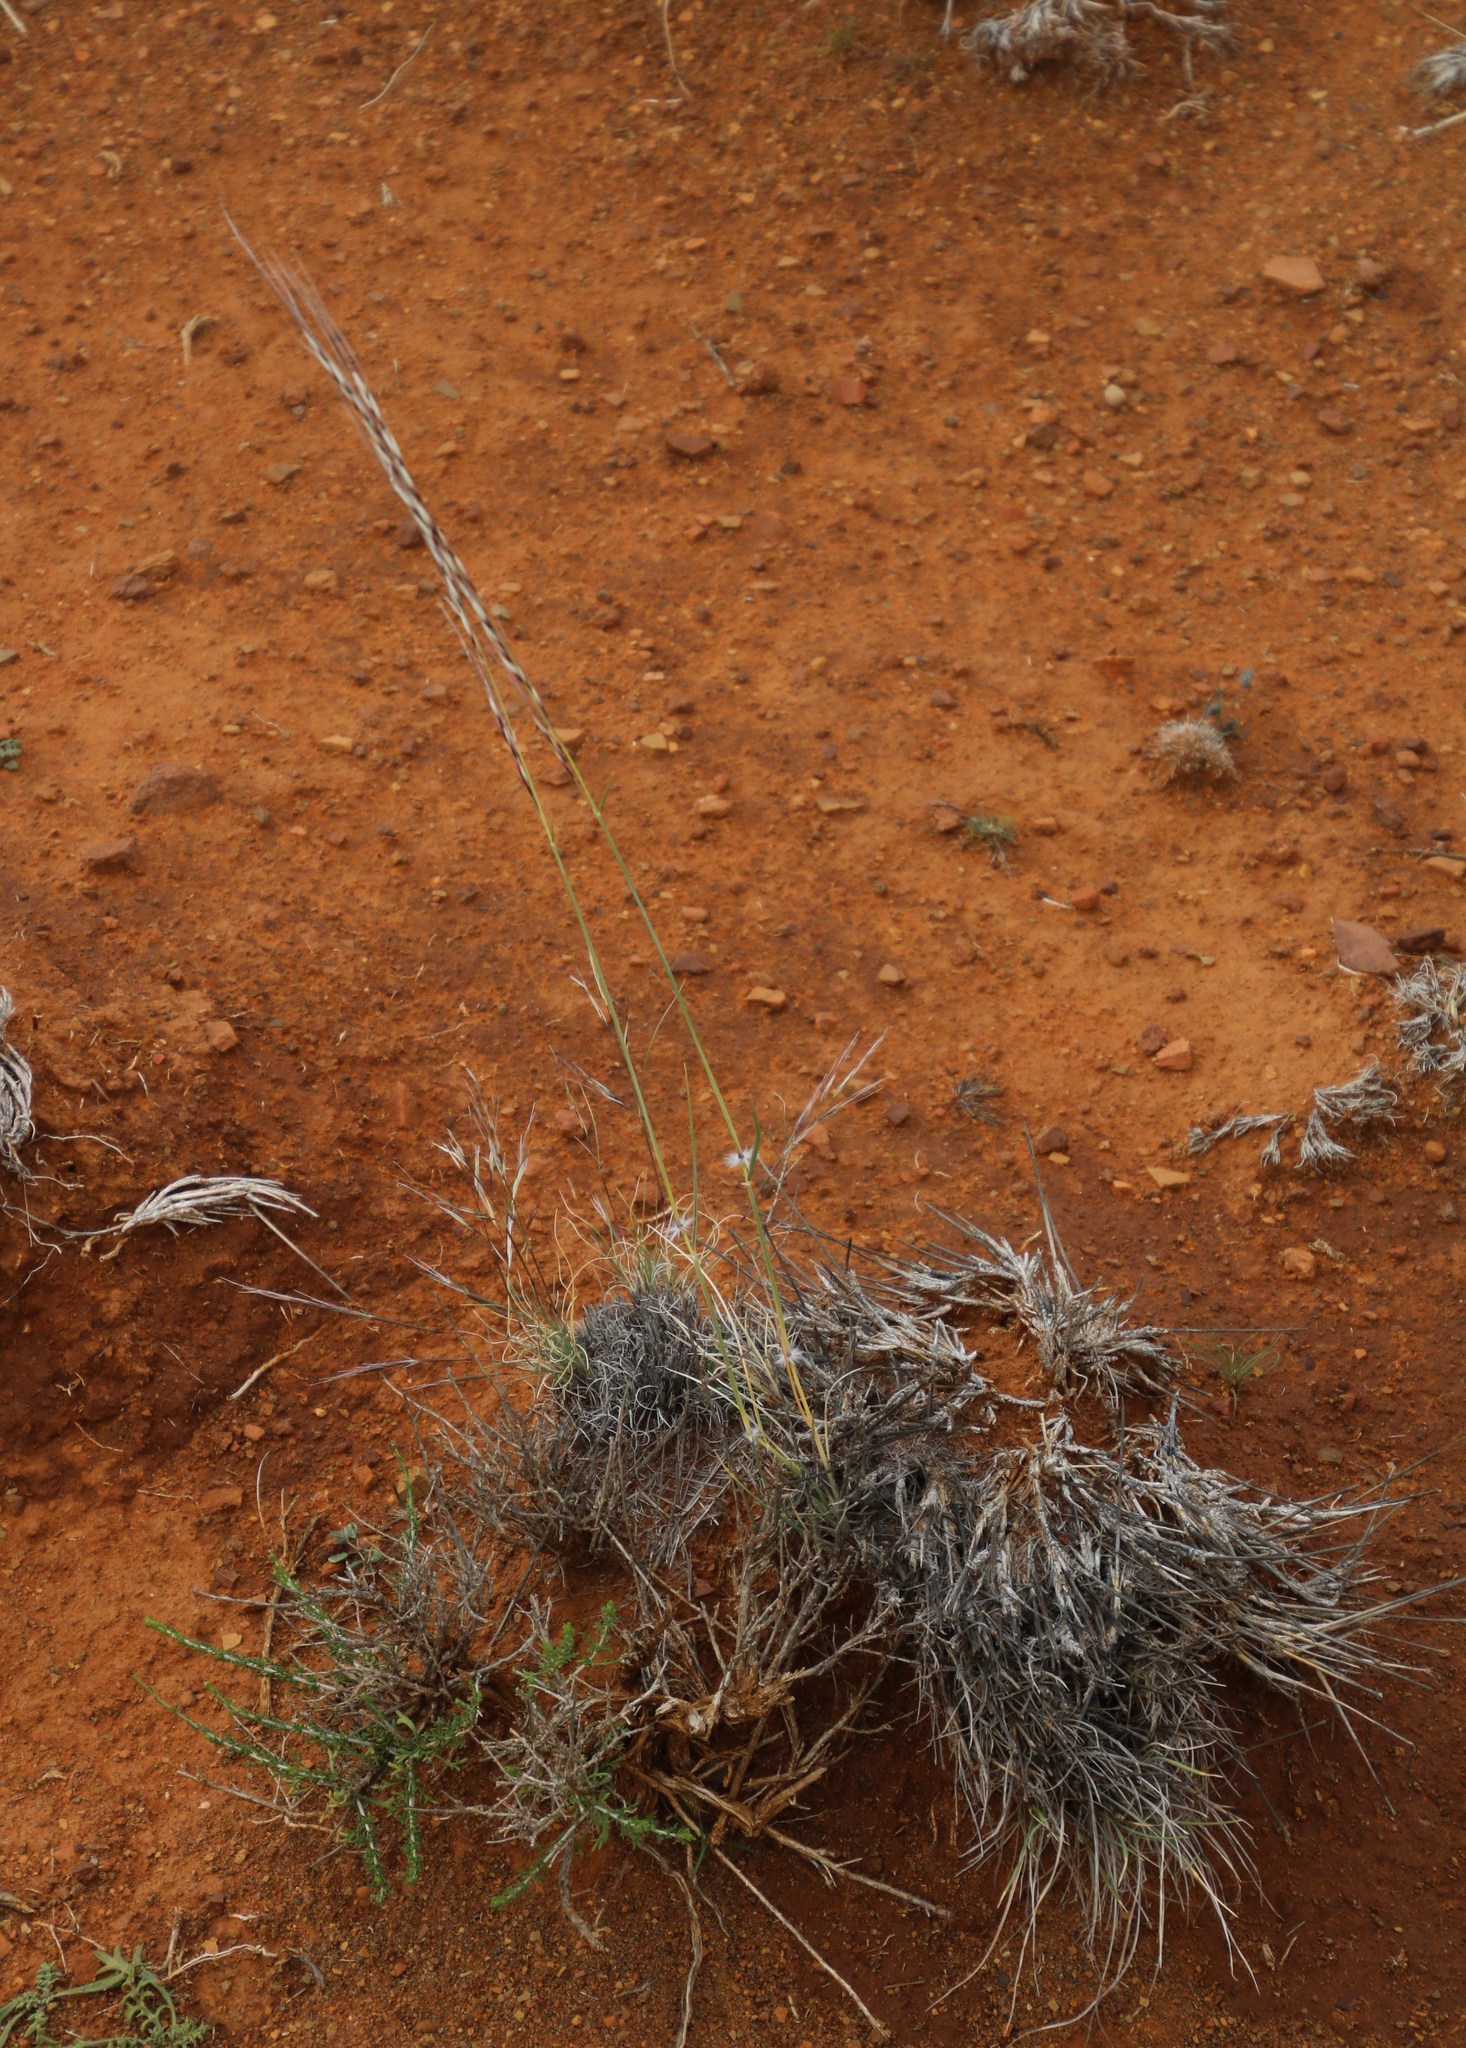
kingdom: Plantae
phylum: Tracheophyta
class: Liliopsida
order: Poales
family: Poaceae
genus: Stipagrostis
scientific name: Stipagrostis ciliata
